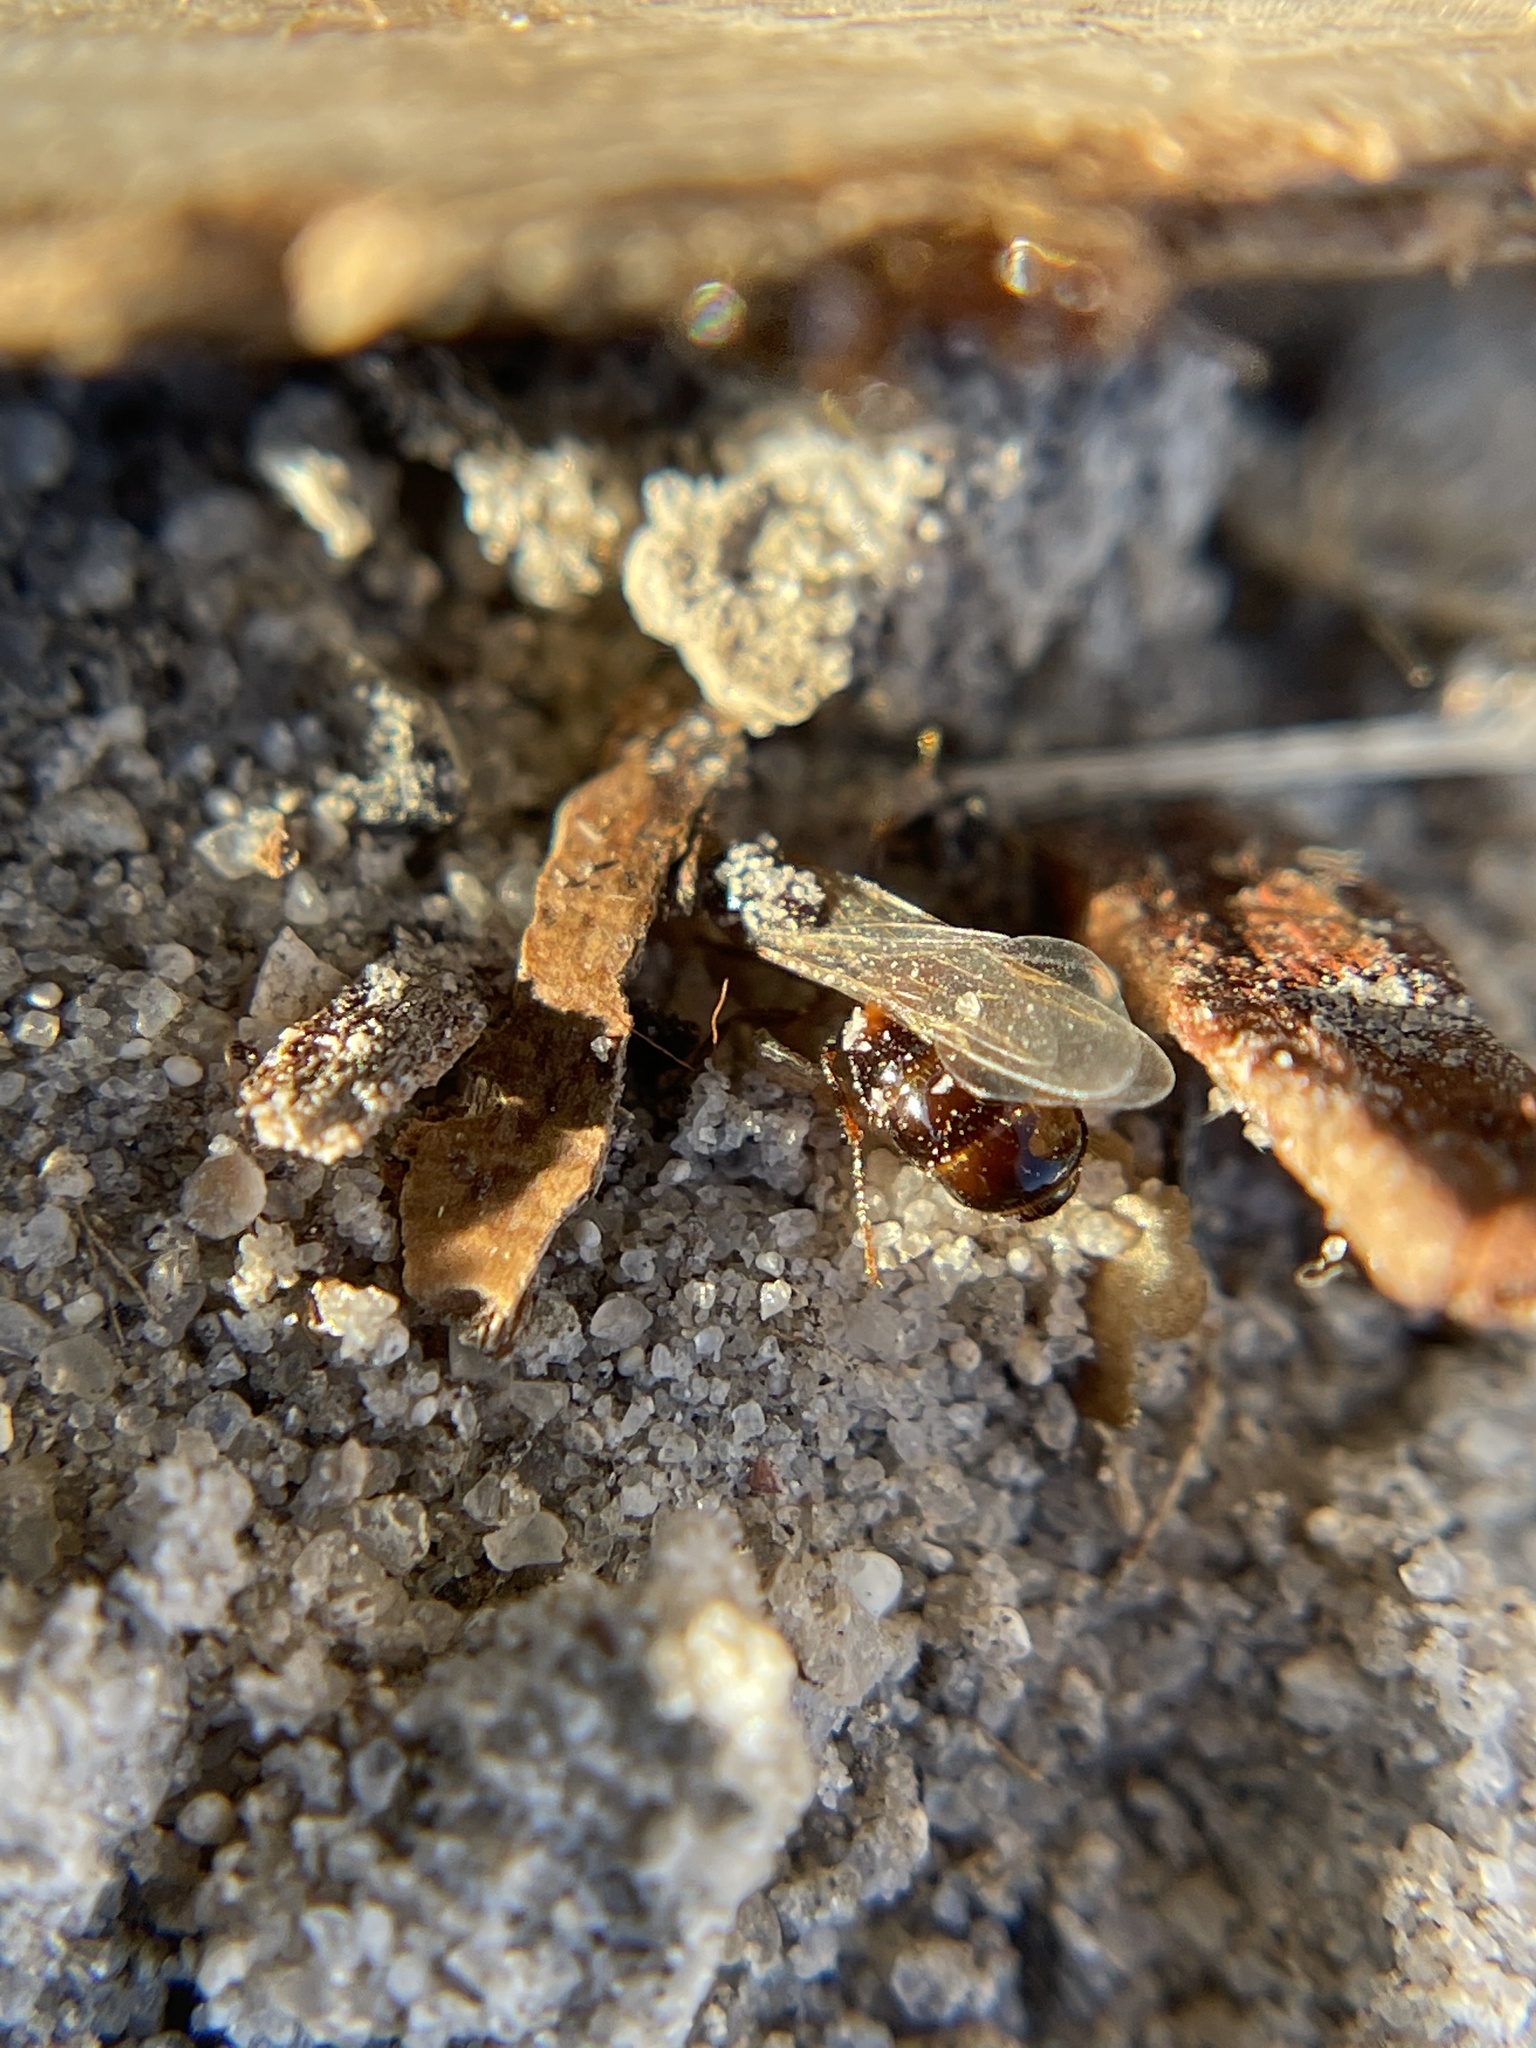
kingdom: Animalia
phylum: Arthropoda
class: Insecta
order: Hymenoptera
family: Formicidae
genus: Solenopsis
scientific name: Solenopsis invicta
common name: Red imported fire ant
